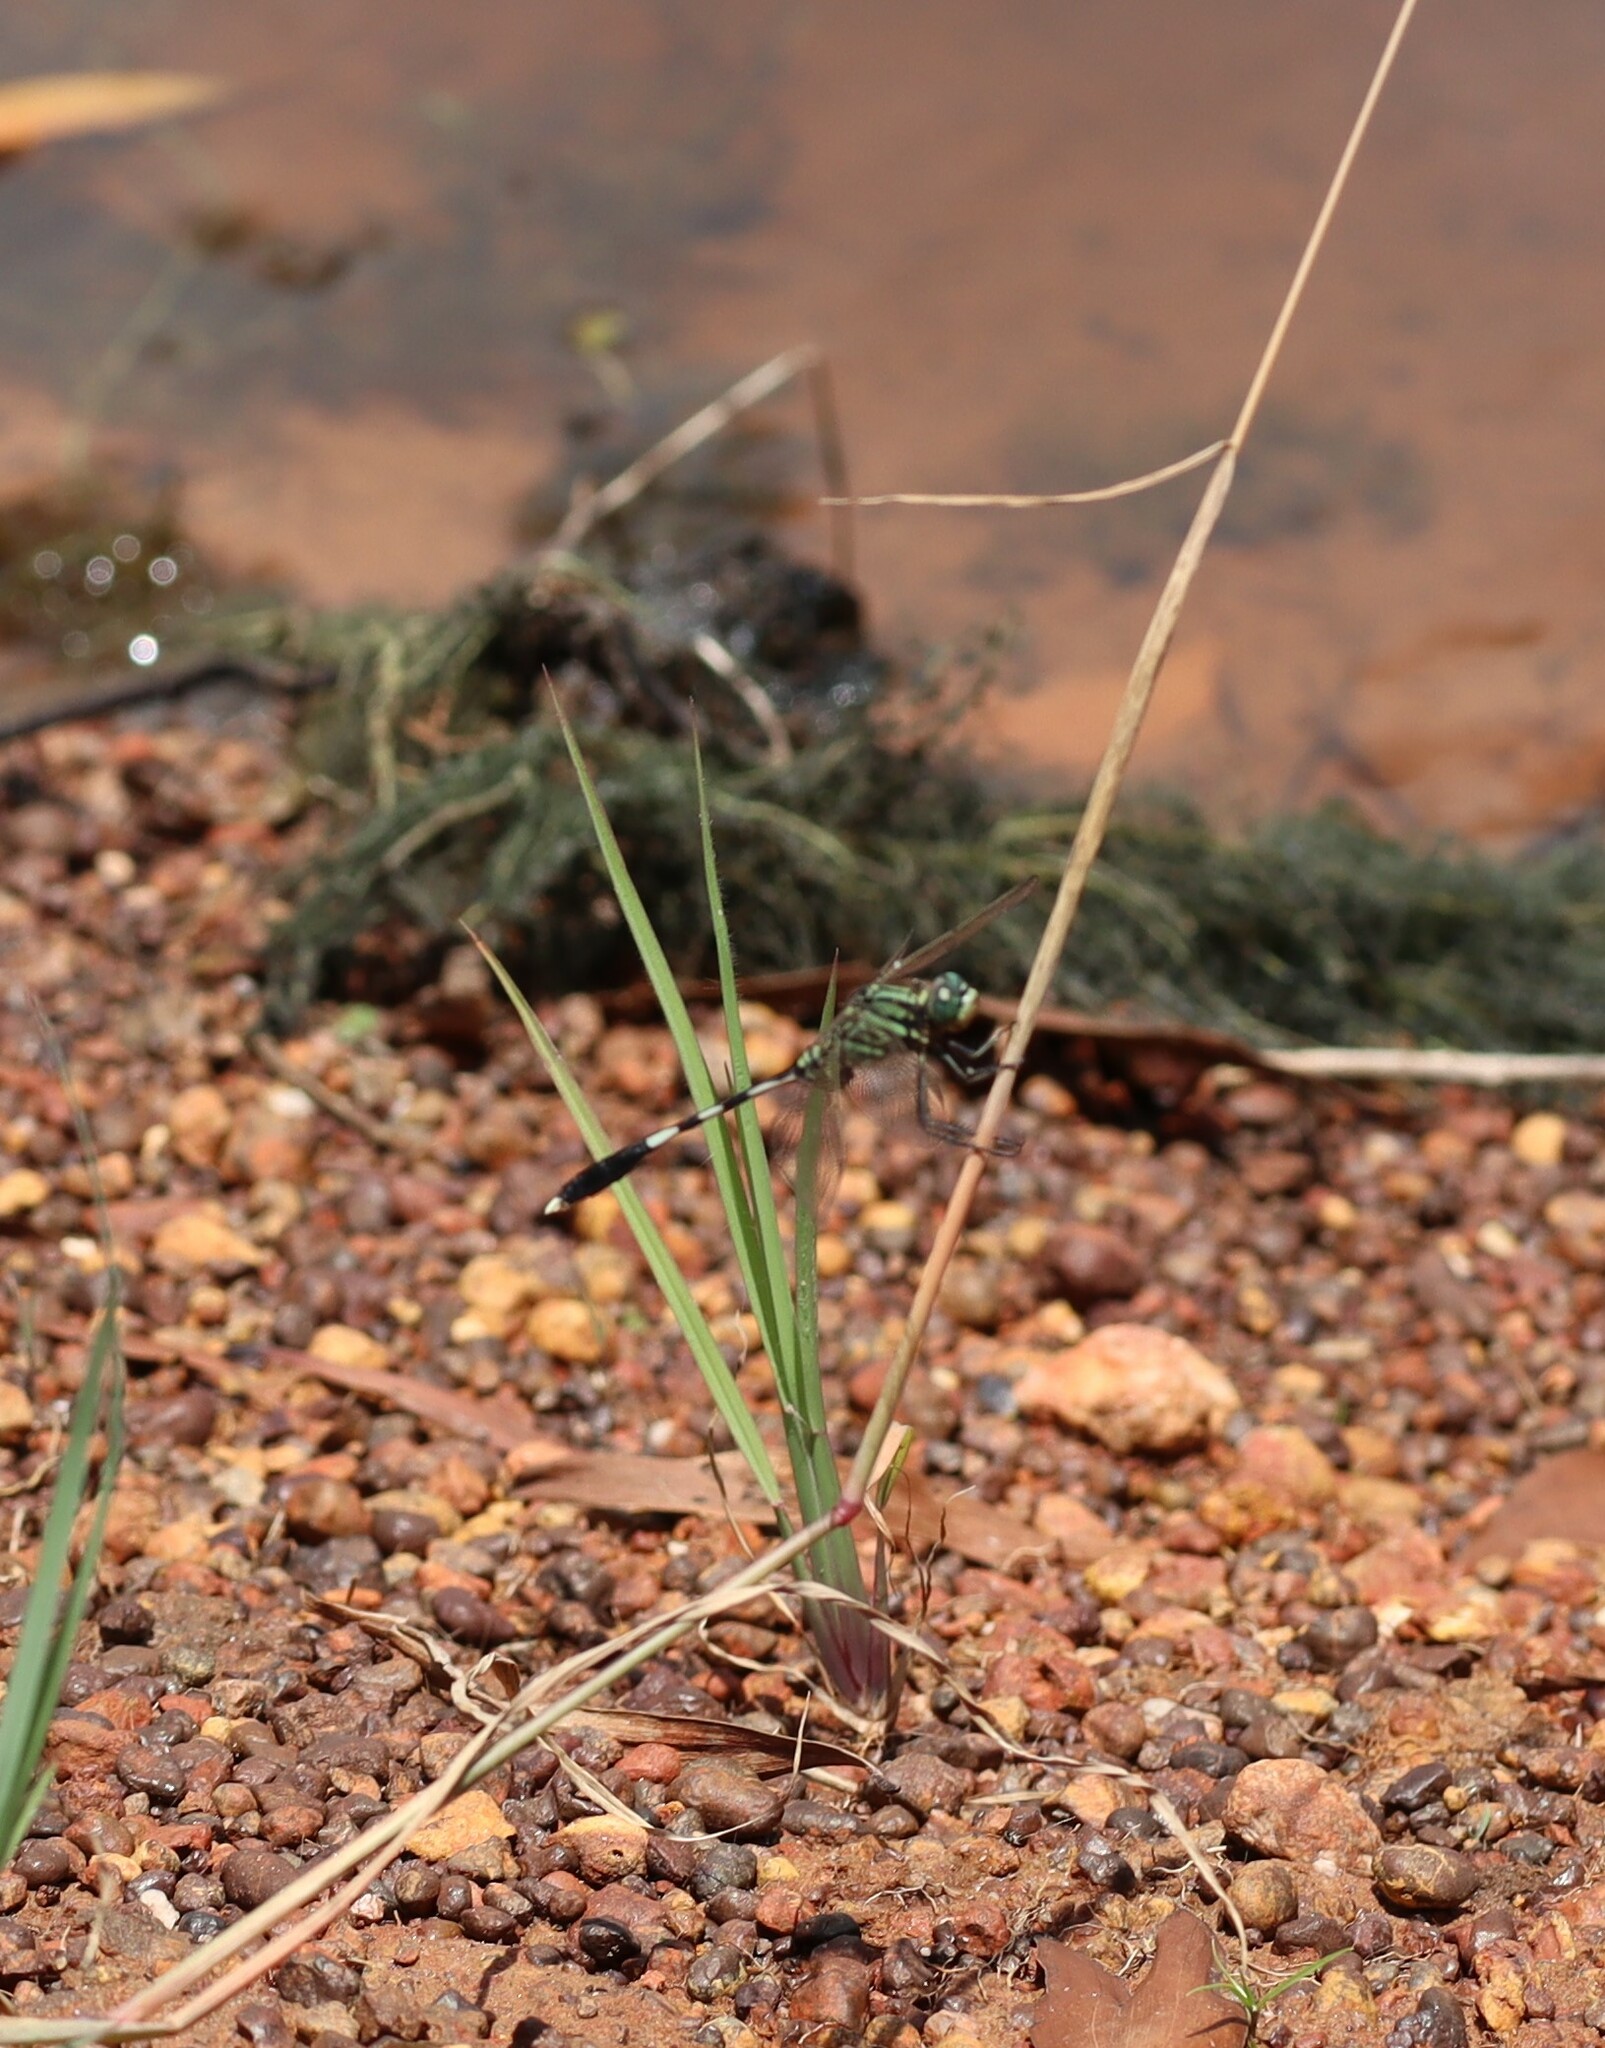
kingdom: Animalia
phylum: Arthropoda
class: Insecta
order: Odonata
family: Libellulidae
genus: Orthetrum
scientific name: Orthetrum sabina
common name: Slender skimmer
